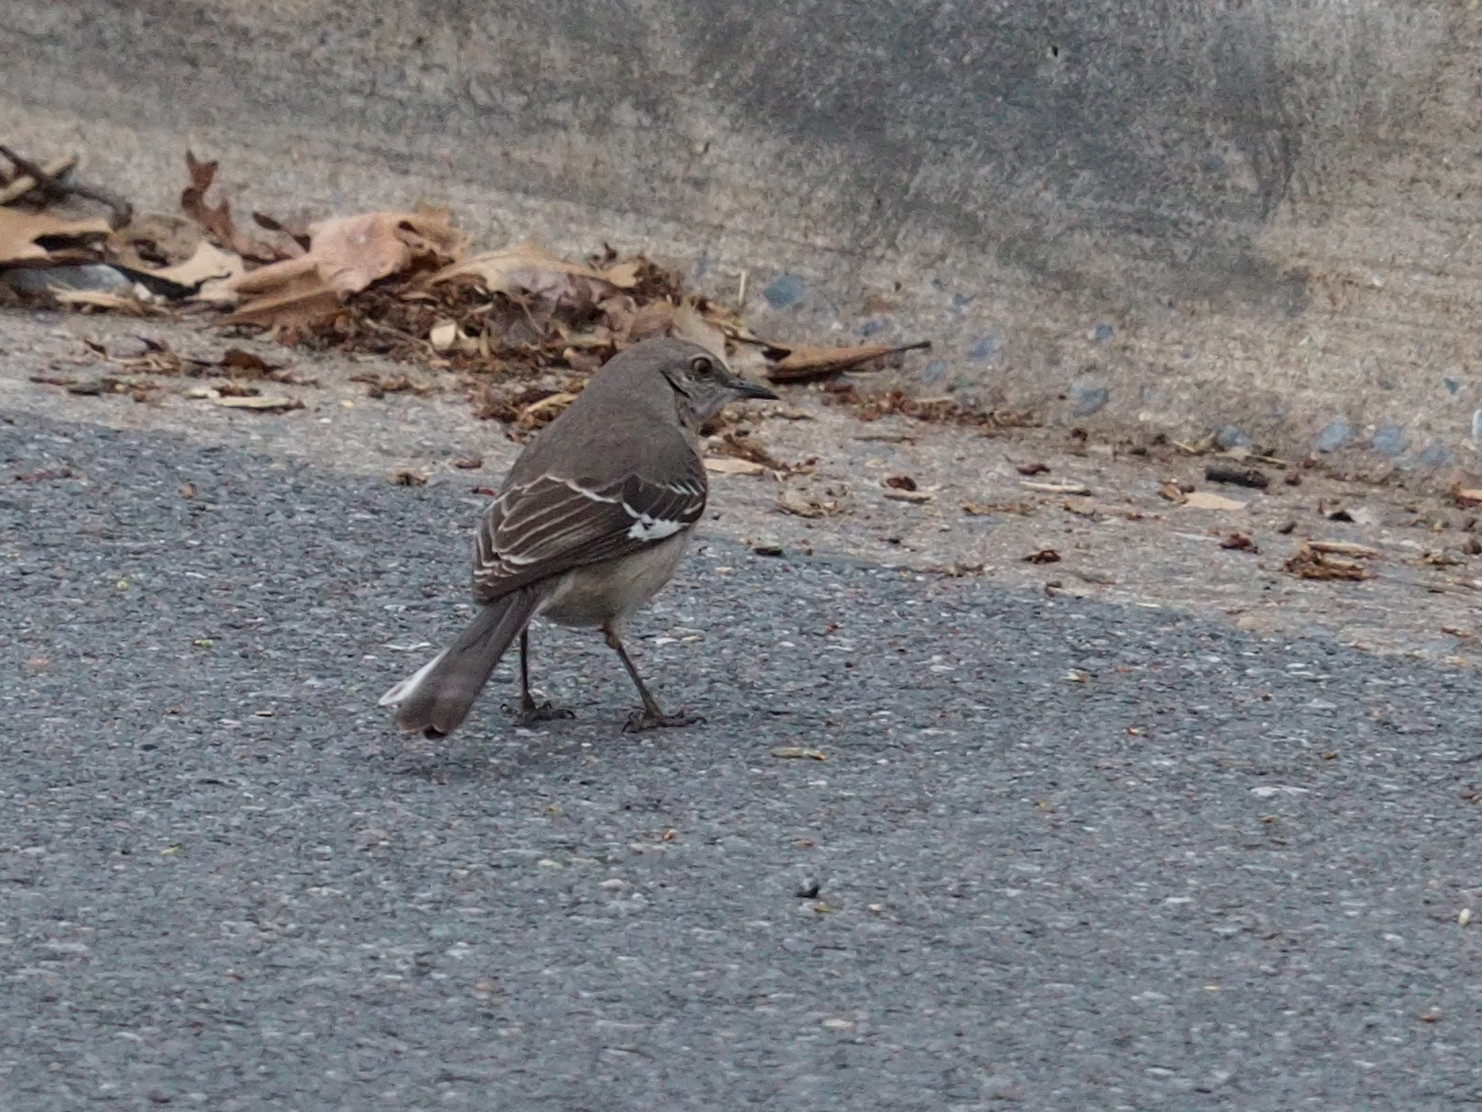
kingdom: Animalia
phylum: Chordata
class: Aves
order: Passeriformes
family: Mimidae
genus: Mimus
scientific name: Mimus polyglottos
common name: Northern mockingbird
